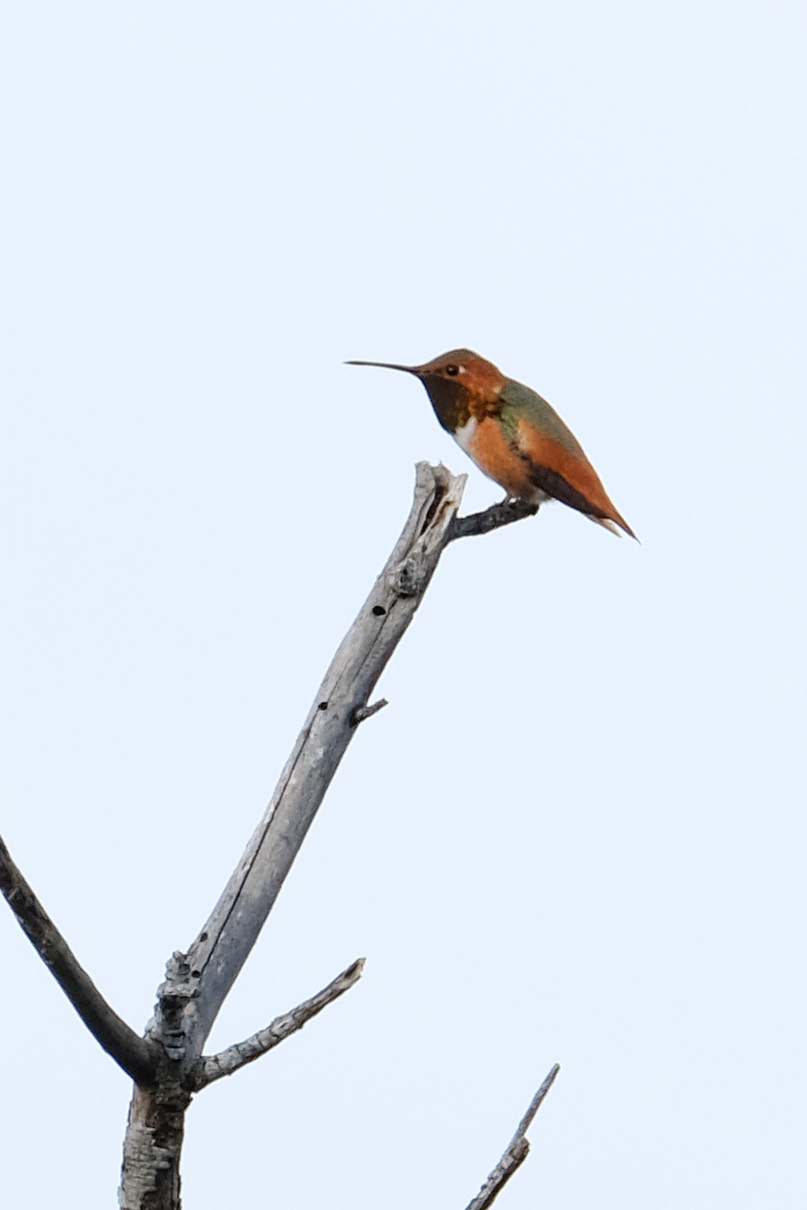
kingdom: Animalia
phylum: Chordata
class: Aves
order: Apodiformes
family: Trochilidae
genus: Selasphorus
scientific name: Selasphorus sasin
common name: Allen's hummingbird
